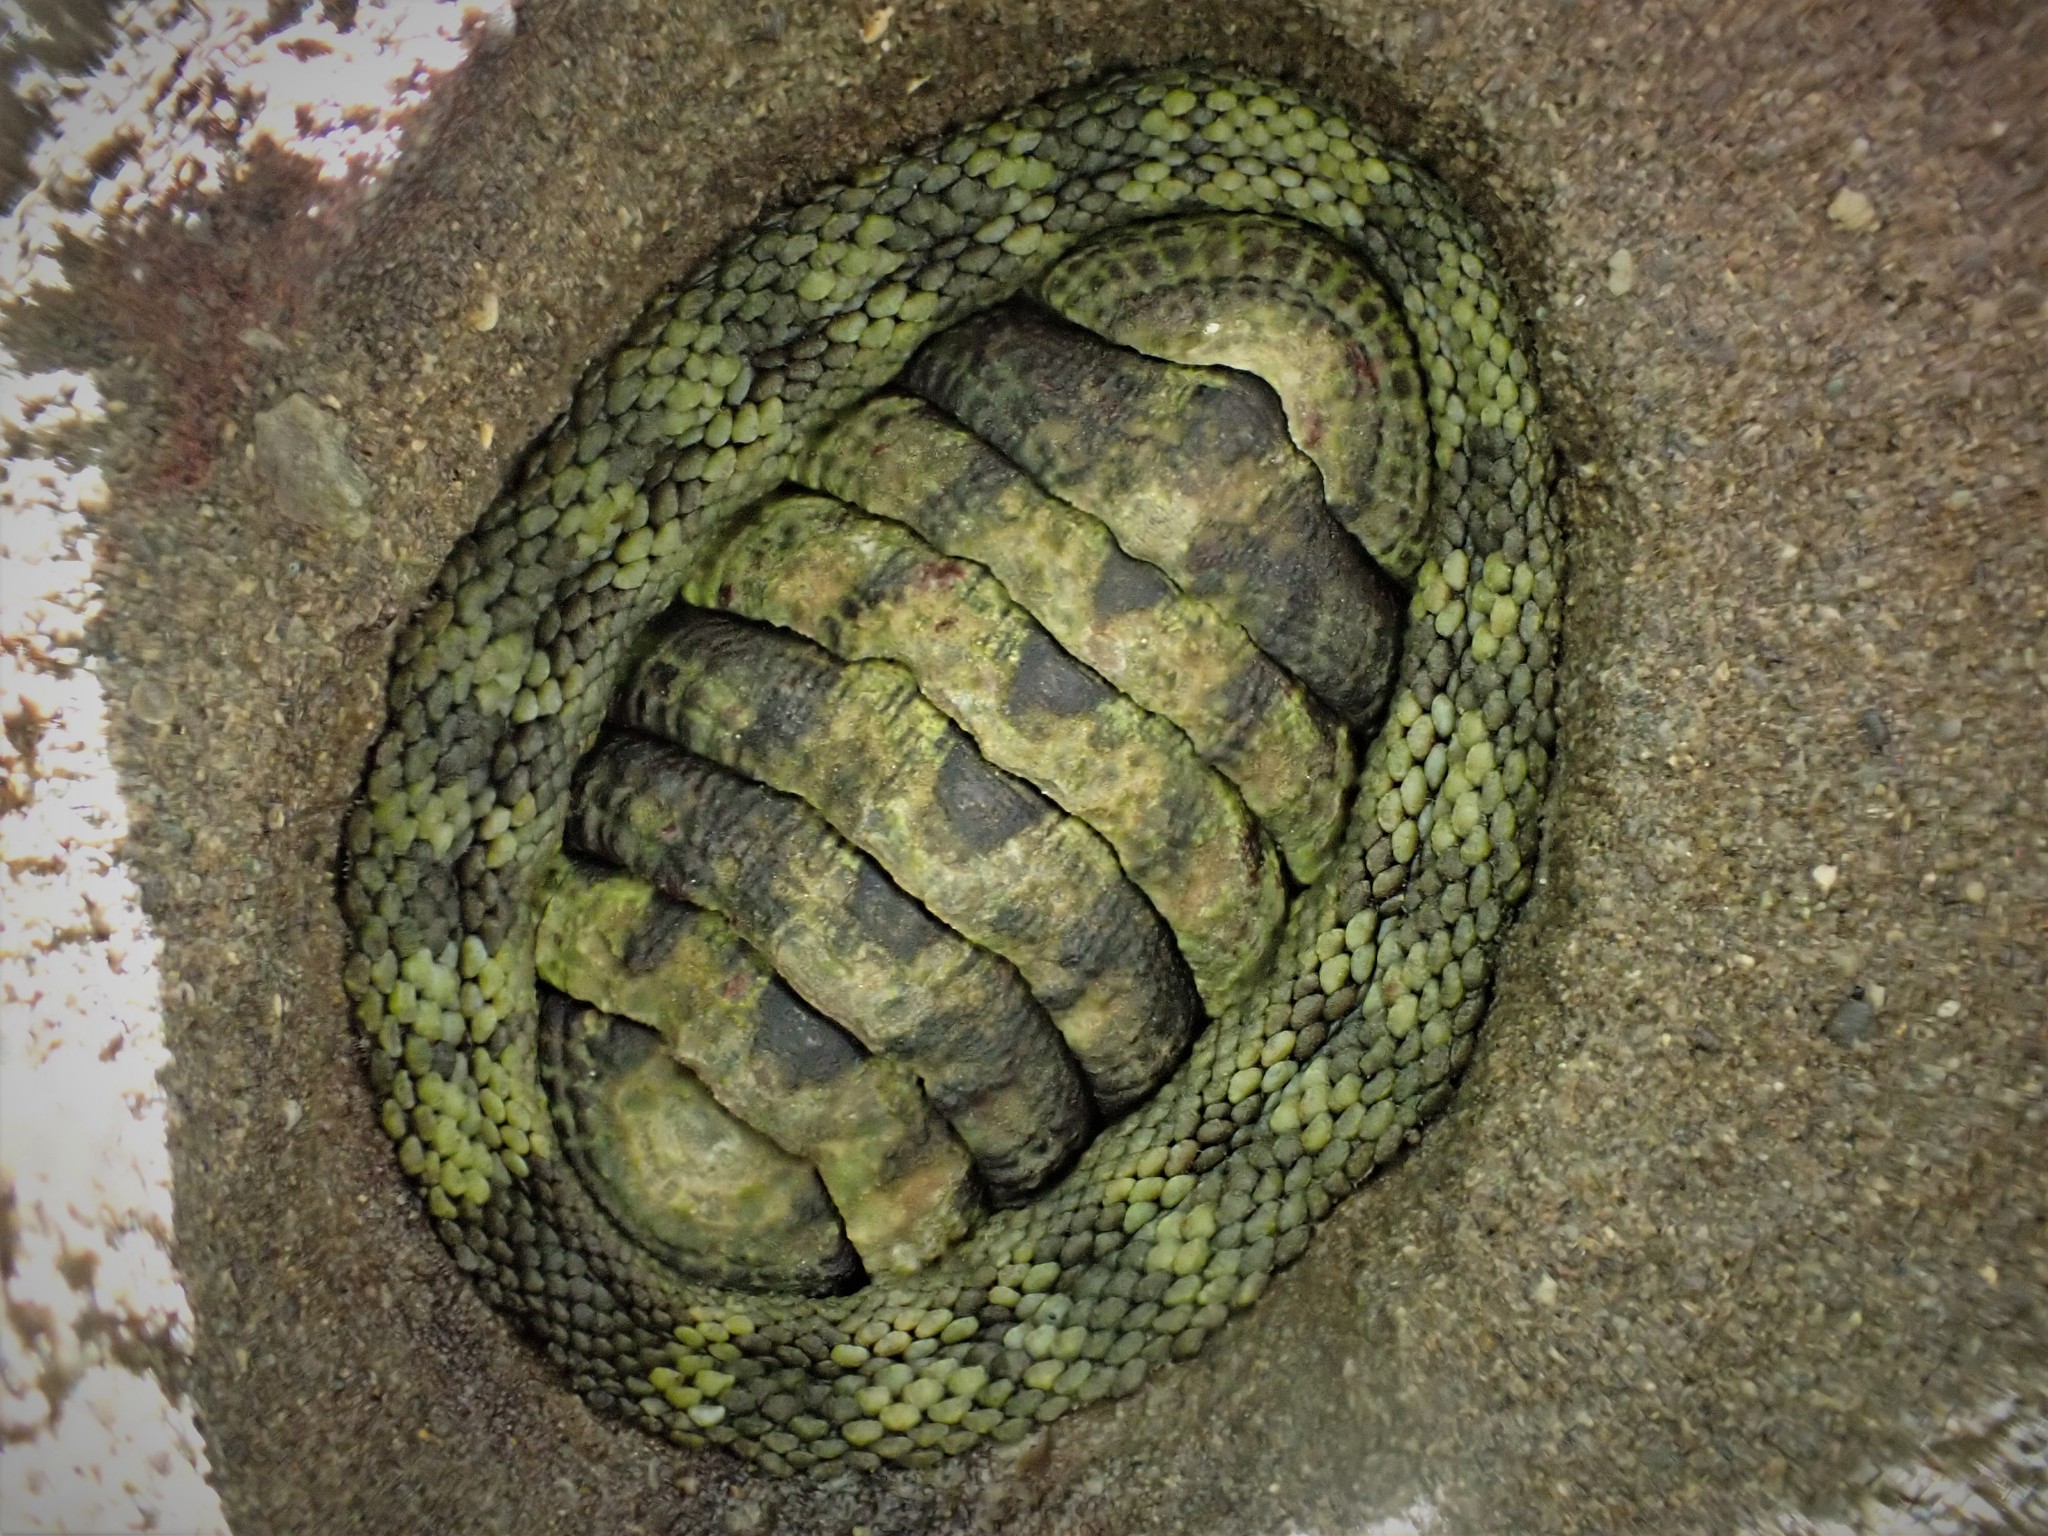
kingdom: Animalia
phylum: Mollusca
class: Polyplacophora
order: Chitonida
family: Chitonidae
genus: Sypharochiton
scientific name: Sypharochiton pelliserpentis
